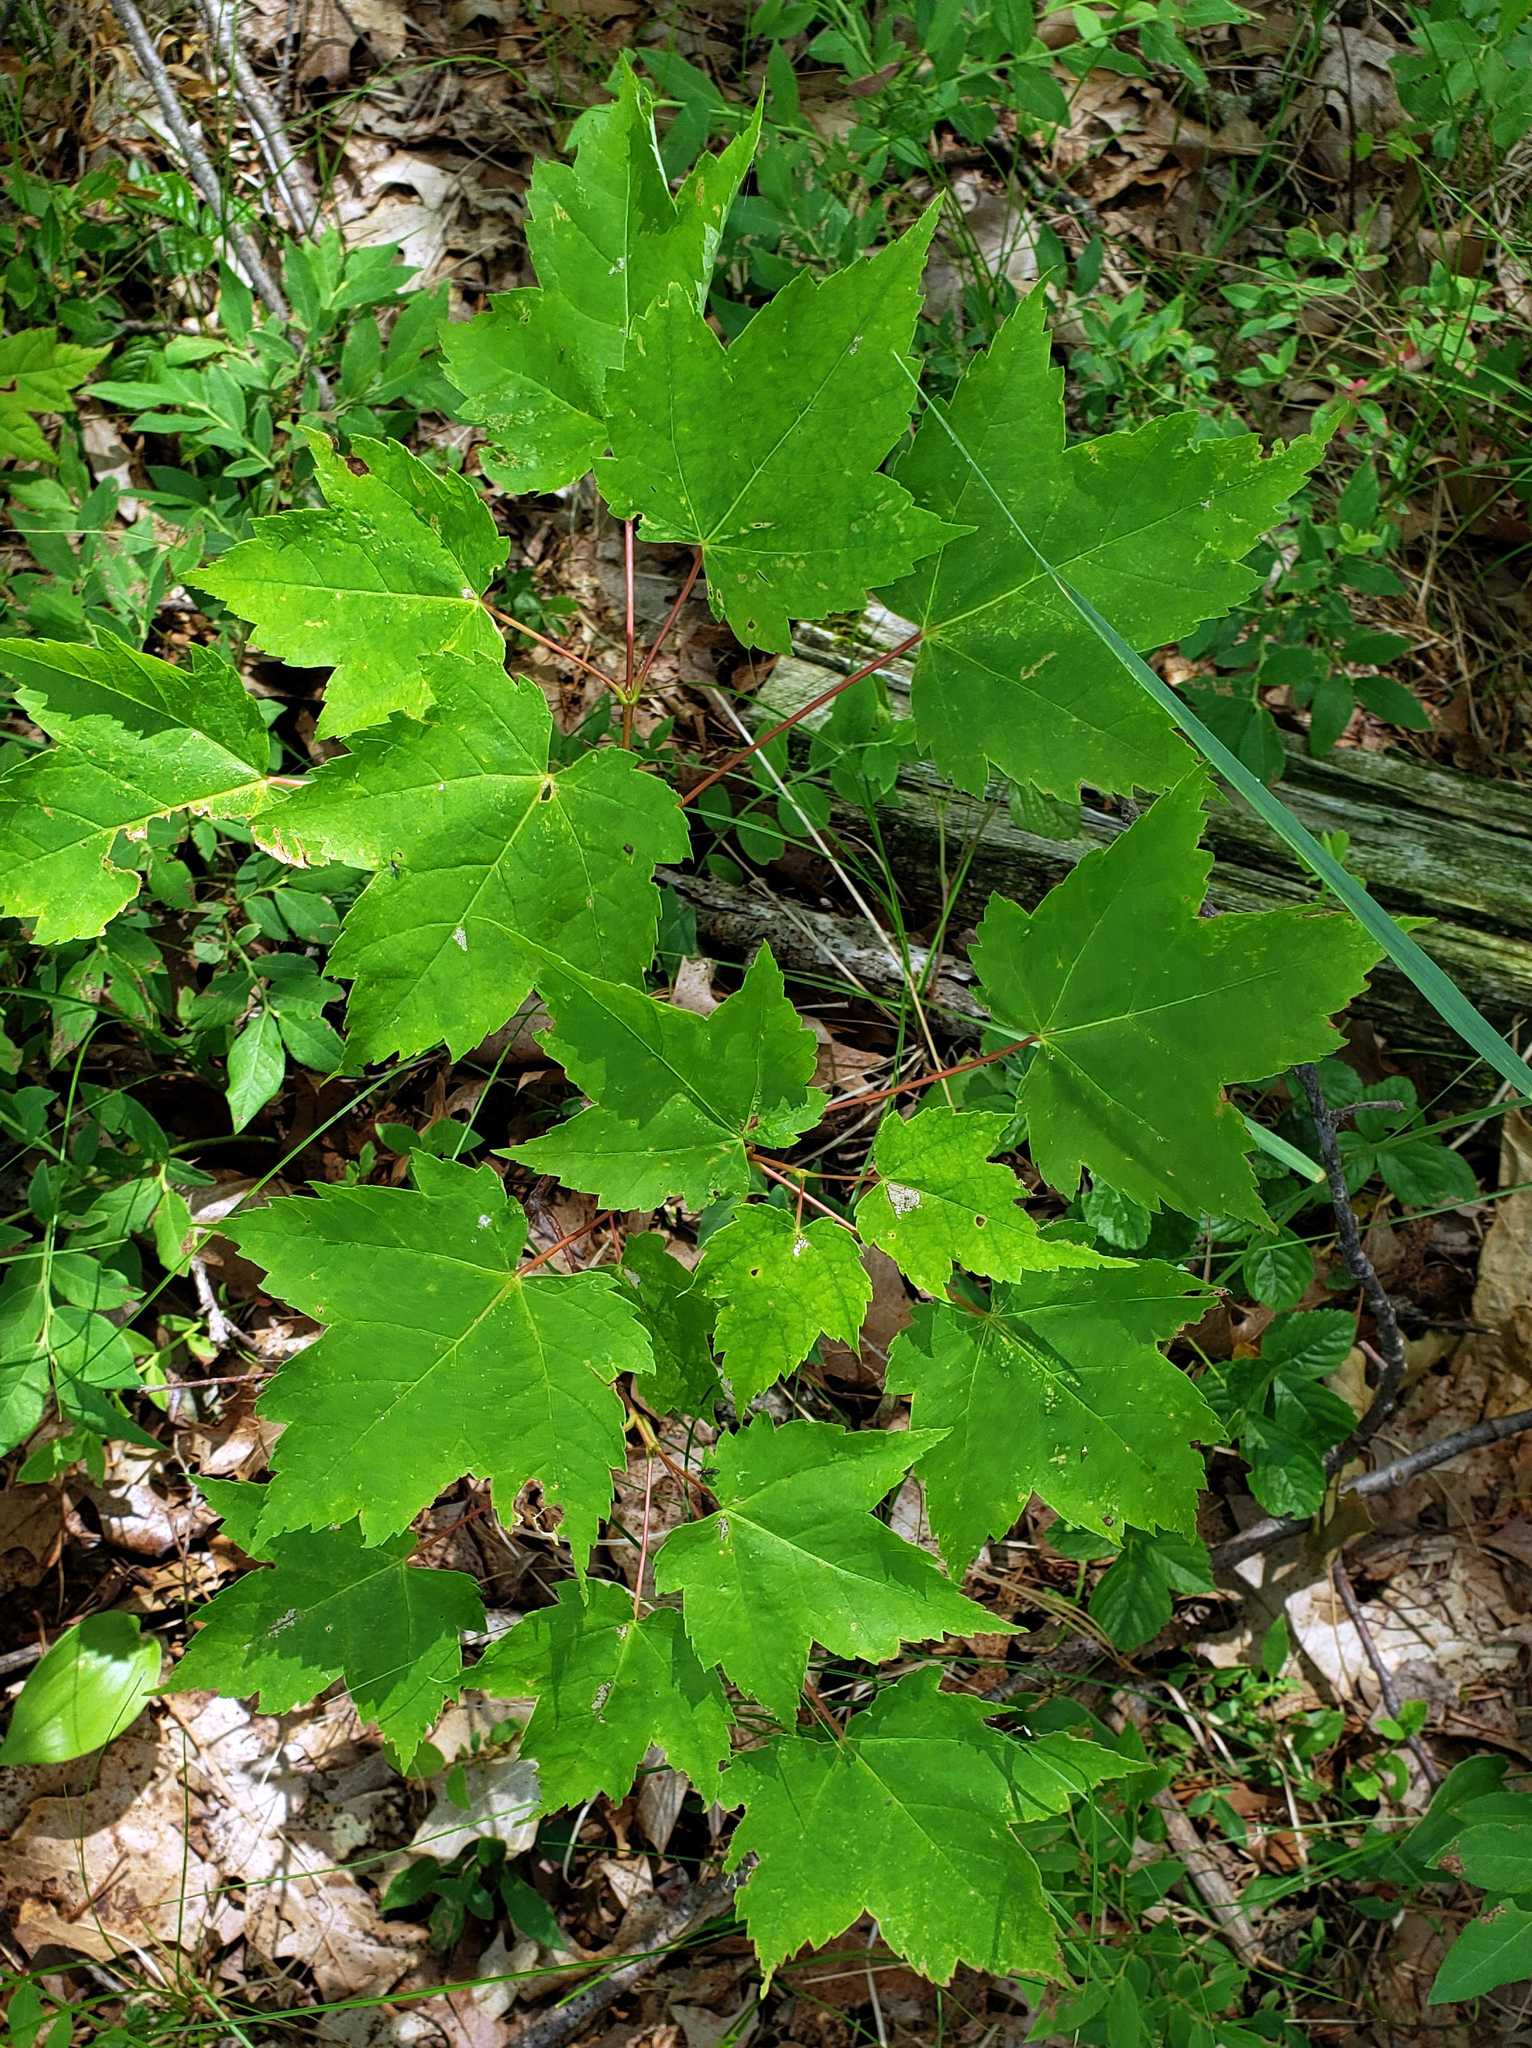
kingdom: Plantae
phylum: Tracheophyta
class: Magnoliopsida
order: Sapindales
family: Sapindaceae
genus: Acer
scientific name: Acer rubrum
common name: Red maple
